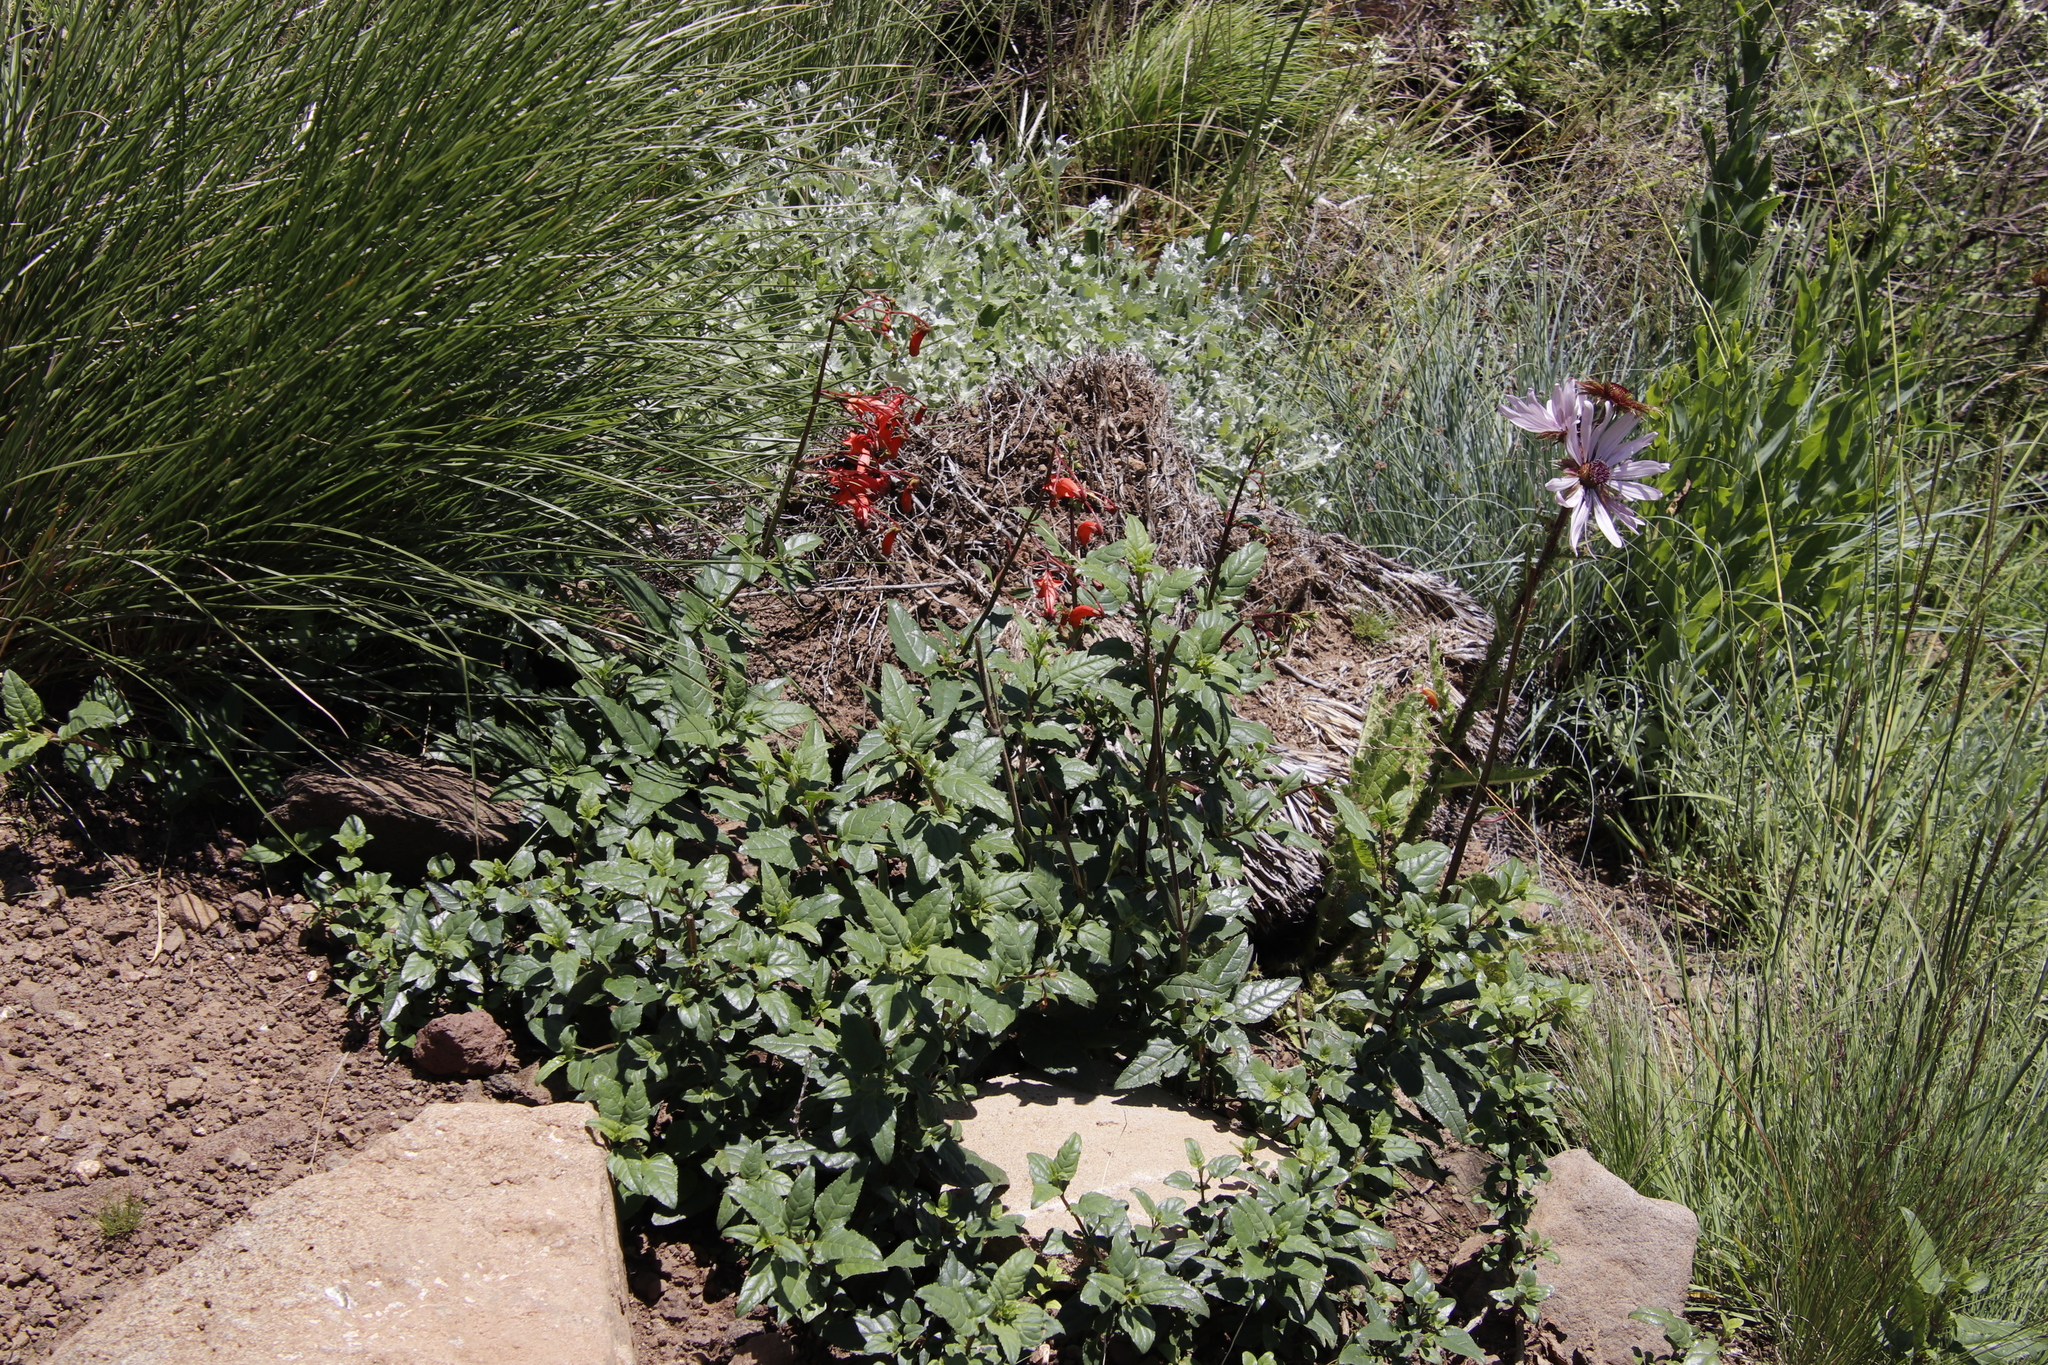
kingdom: Plantae
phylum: Tracheophyta
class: Magnoliopsida
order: Lamiales
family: Scrophulariaceae
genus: Phygelius
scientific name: Phygelius capensis
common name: Cape figwort
